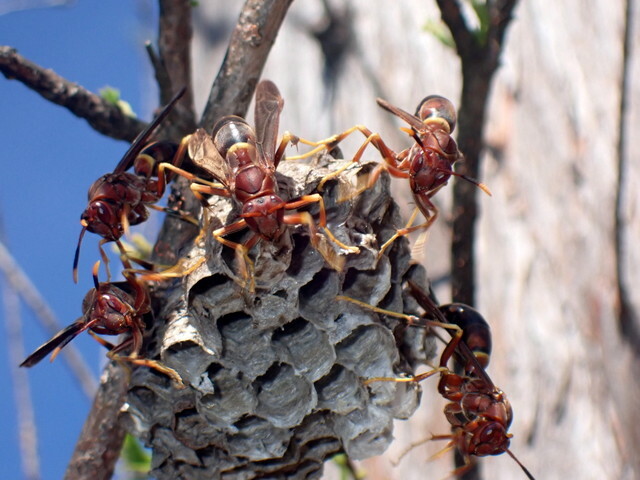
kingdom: Animalia
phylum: Arthropoda
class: Insecta
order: Hymenoptera
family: Eumenidae
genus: Polistes
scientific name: Polistes annularis
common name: Ringed paper wasp
